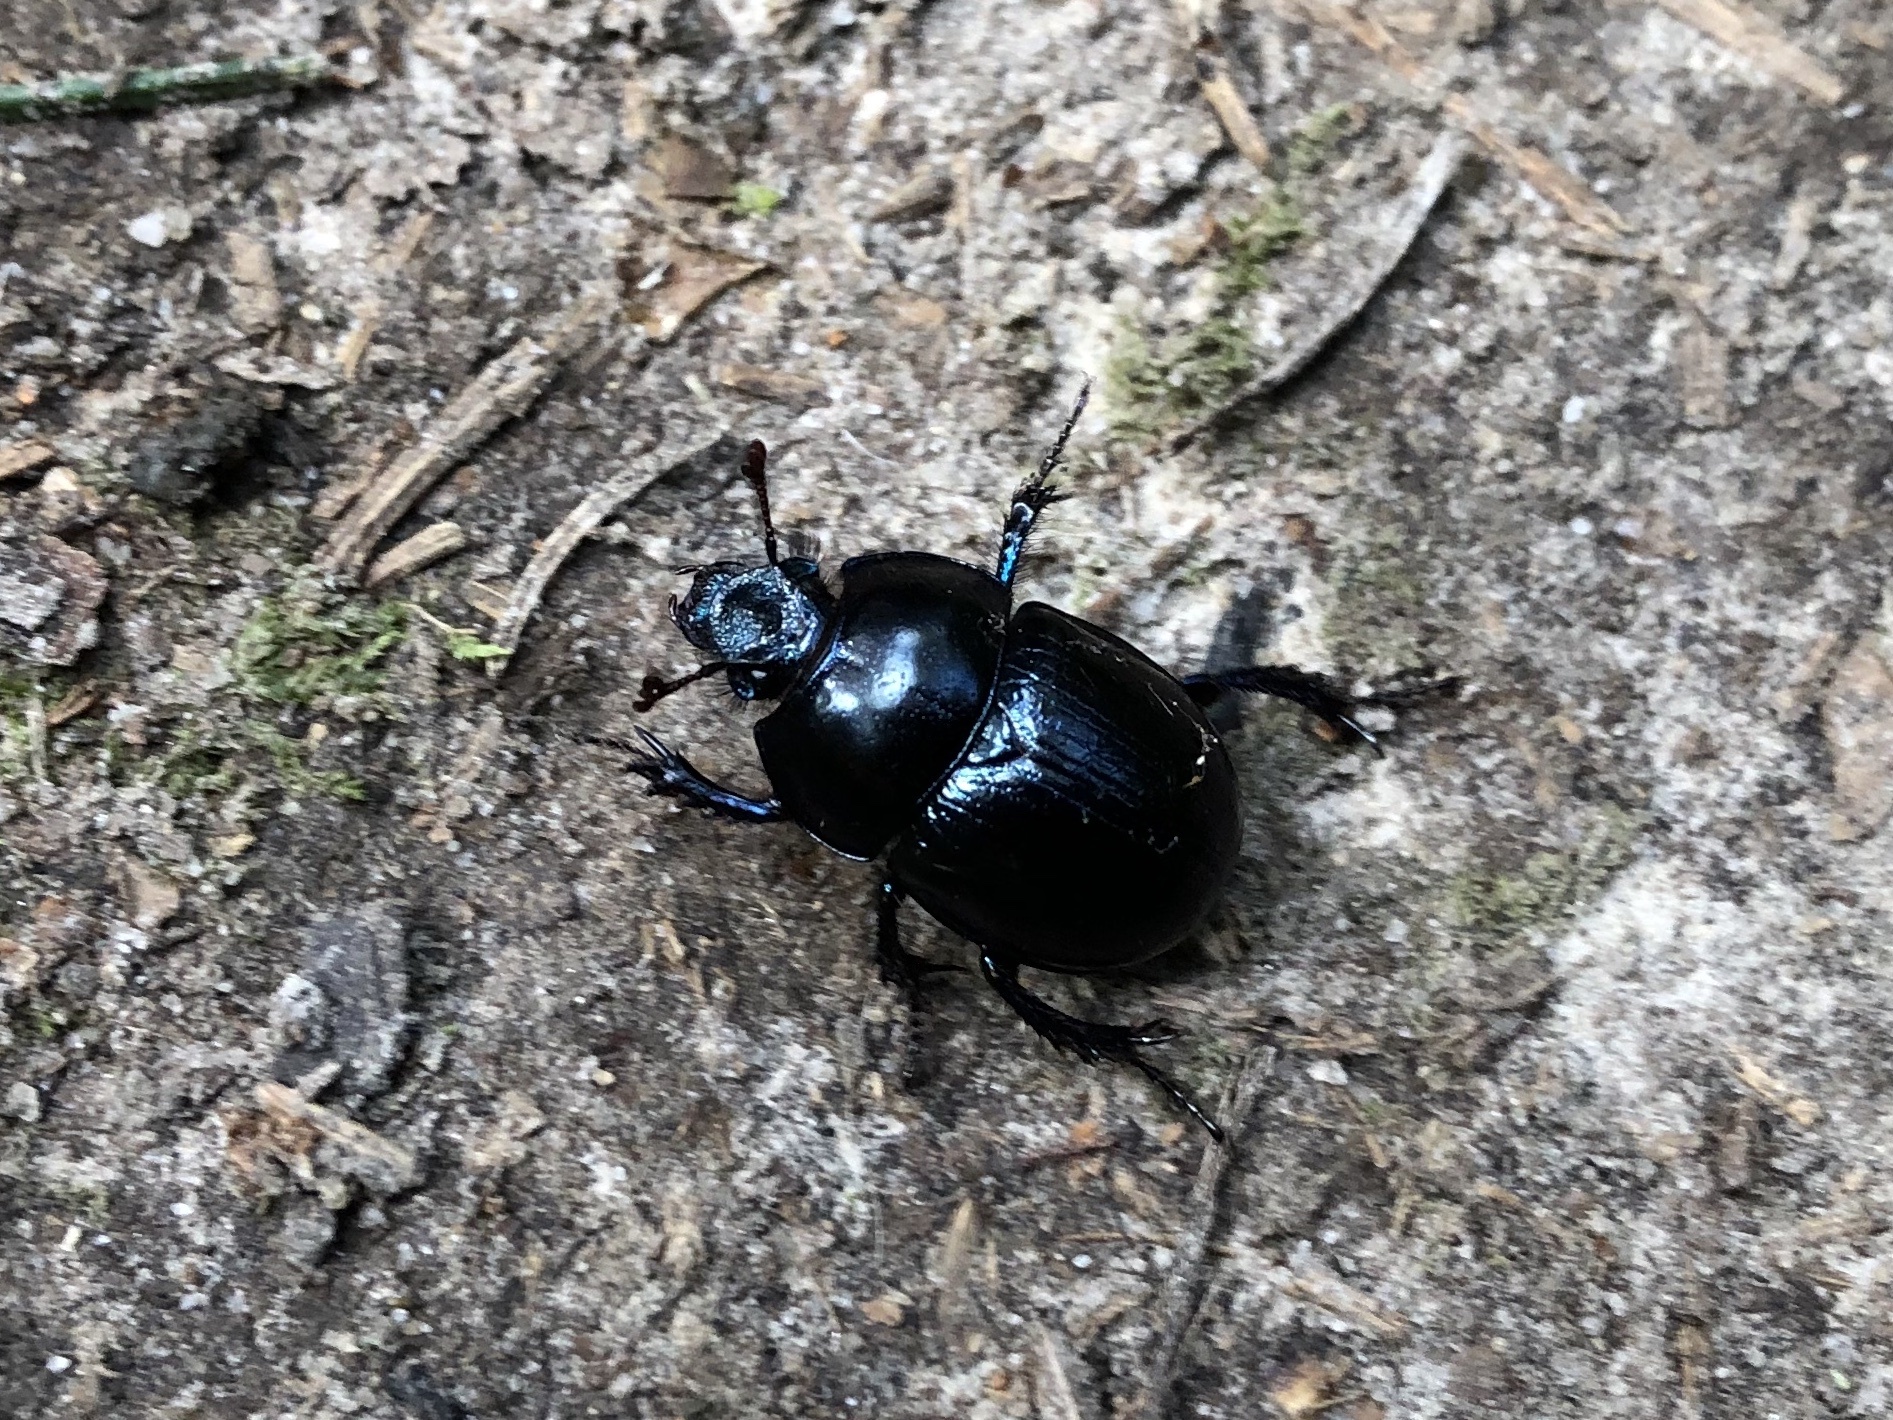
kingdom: Animalia
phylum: Arthropoda
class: Insecta
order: Coleoptera
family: Geotrupidae
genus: Anoplotrupes
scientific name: Anoplotrupes stercorosus
